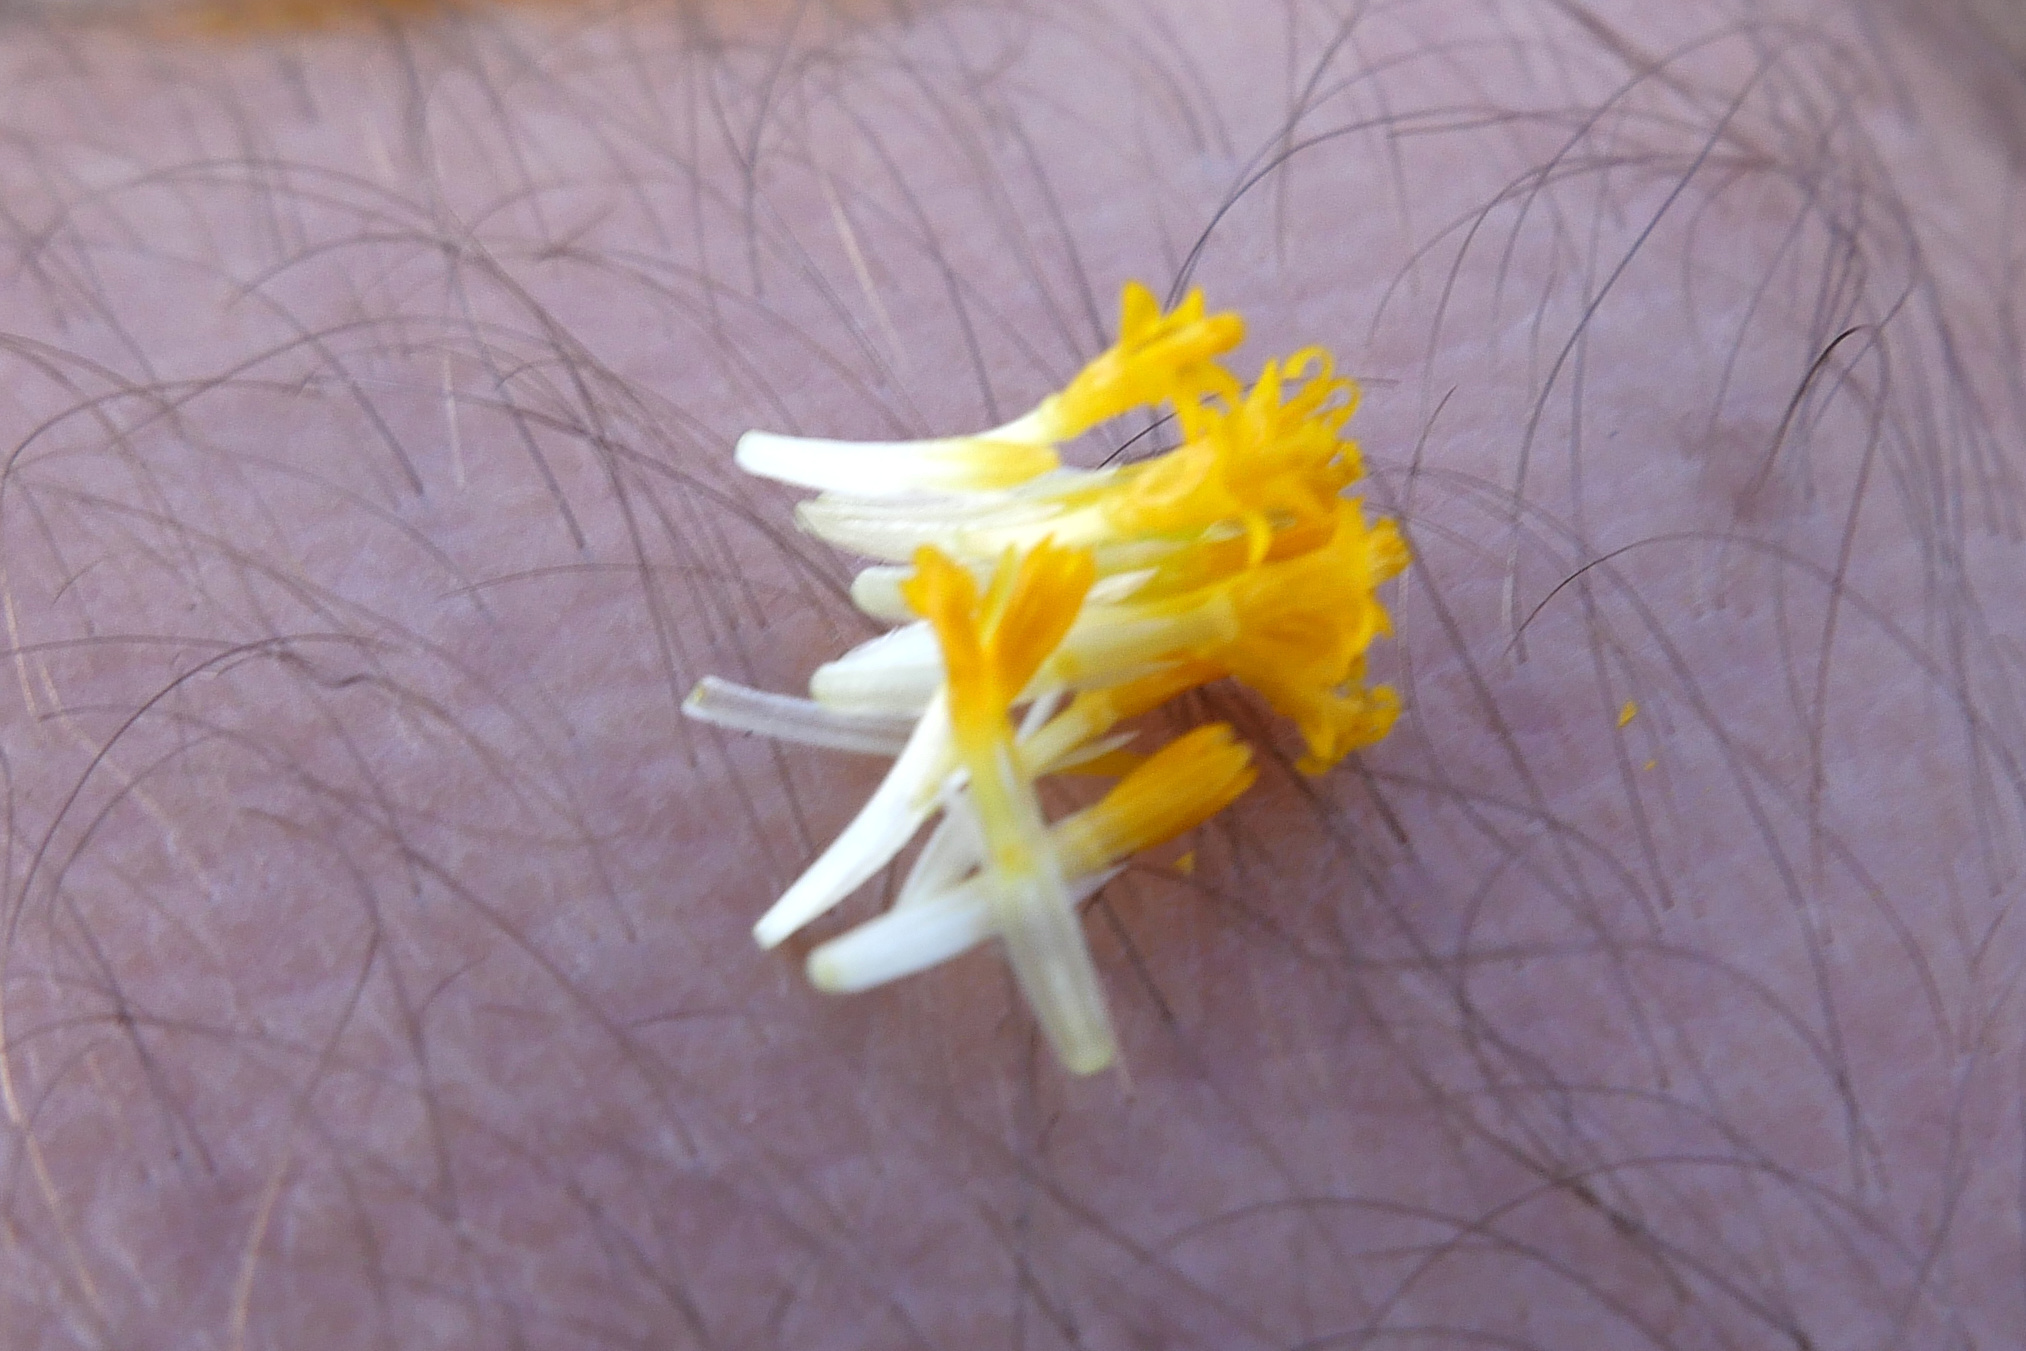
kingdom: Plantae
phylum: Tracheophyta
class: Magnoliopsida
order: Asterales
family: Asteraceae
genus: Coreopsis
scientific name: Coreopsis bigelovii
